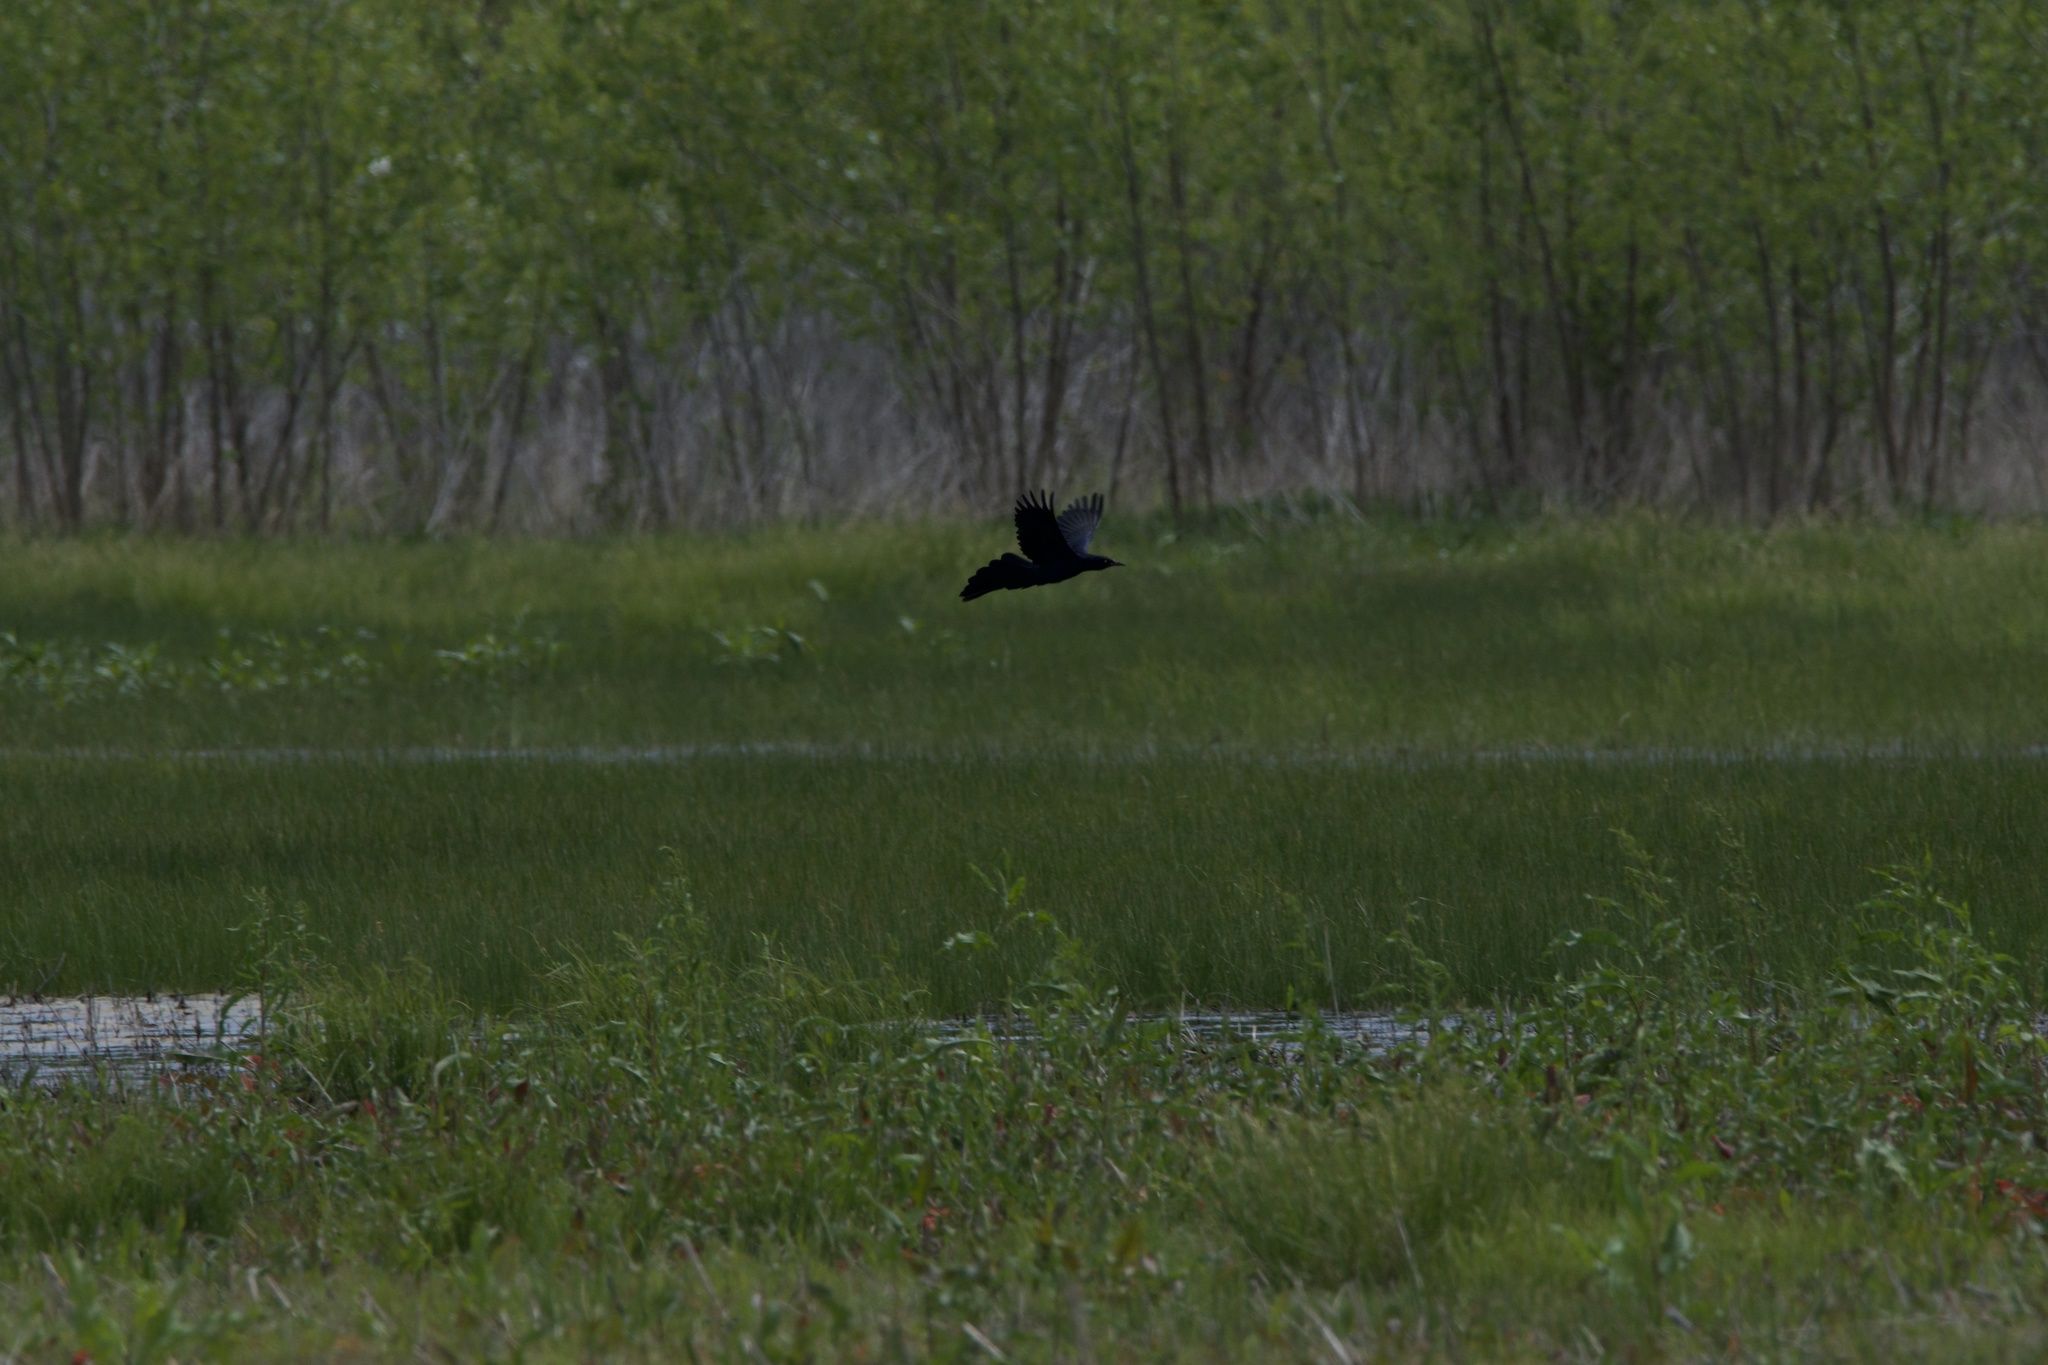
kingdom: Animalia
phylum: Chordata
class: Aves
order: Passeriformes
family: Icteridae
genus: Quiscalus
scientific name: Quiscalus mexicanus
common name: Great-tailed grackle
